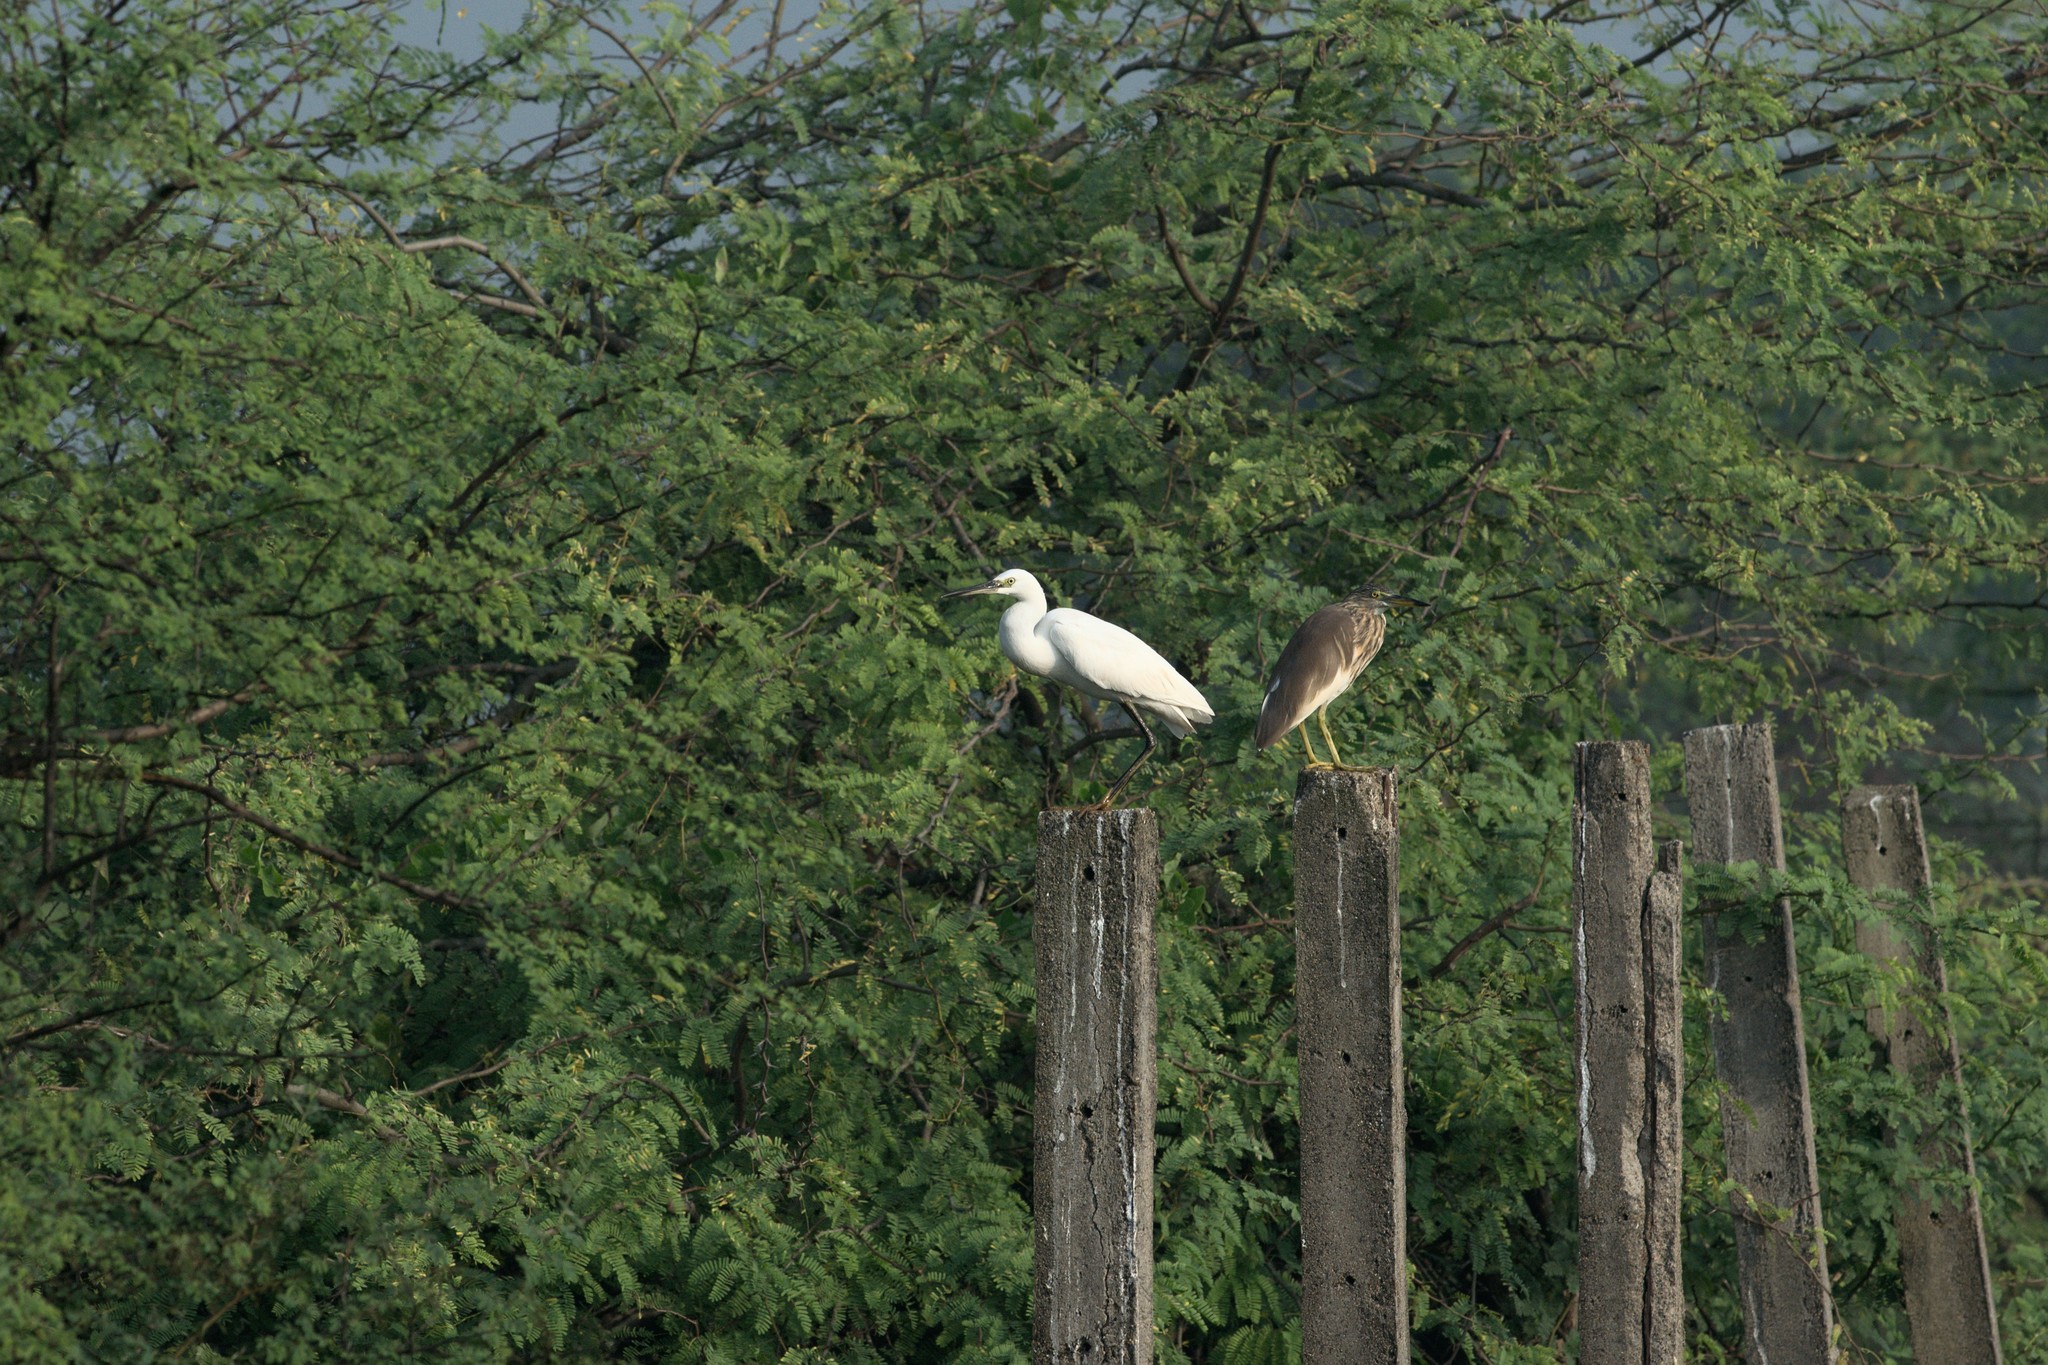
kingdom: Animalia
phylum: Chordata
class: Aves
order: Pelecaniformes
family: Ardeidae
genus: Egretta
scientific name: Egretta garzetta
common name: Little egret
